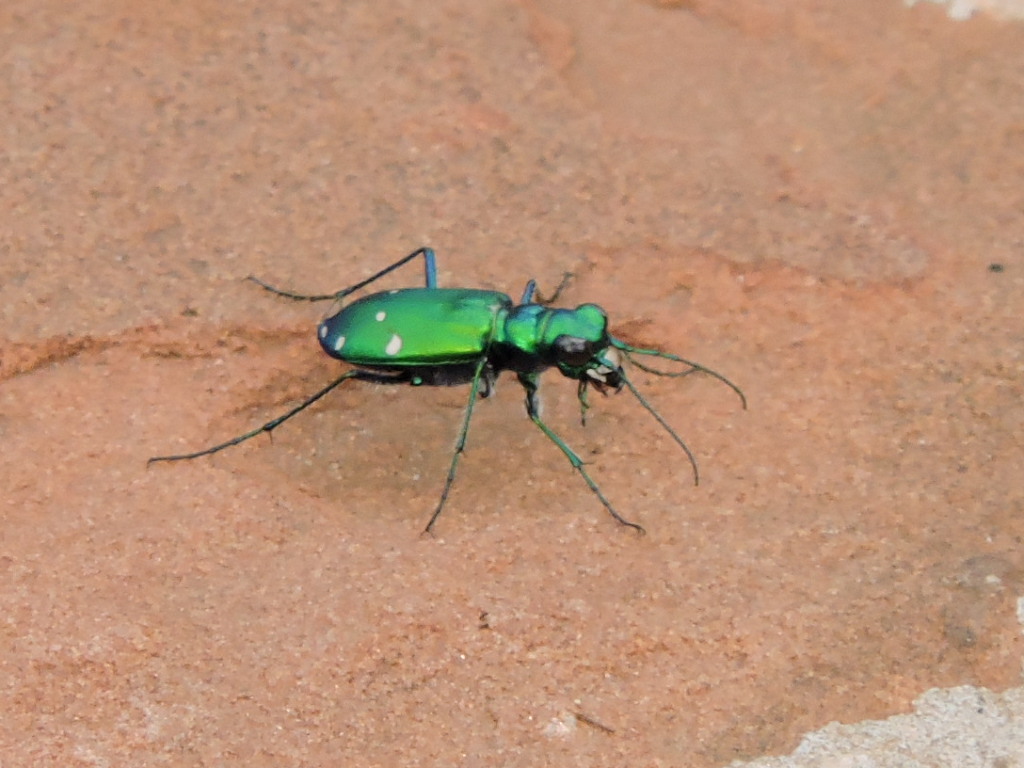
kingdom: Animalia
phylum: Arthropoda
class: Insecta
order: Coleoptera
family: Carabidae
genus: Cicindela
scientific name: Cicindela sexguttata
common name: Six-spotted tiger beetle
